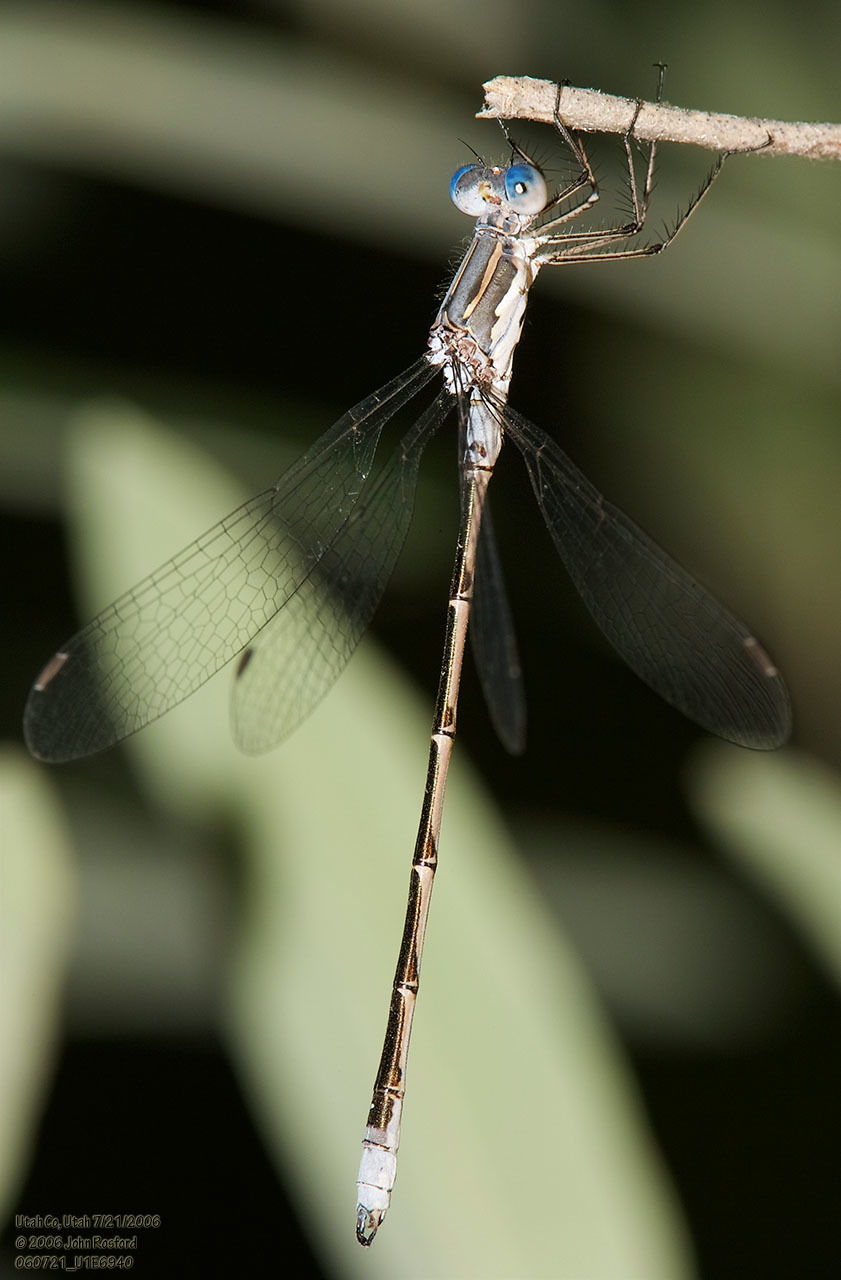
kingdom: Animalia
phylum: Arthropoda
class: Insecta
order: Odonata
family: Lestidae
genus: Lestes
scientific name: Lestes congener
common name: Spotted spreadwing
